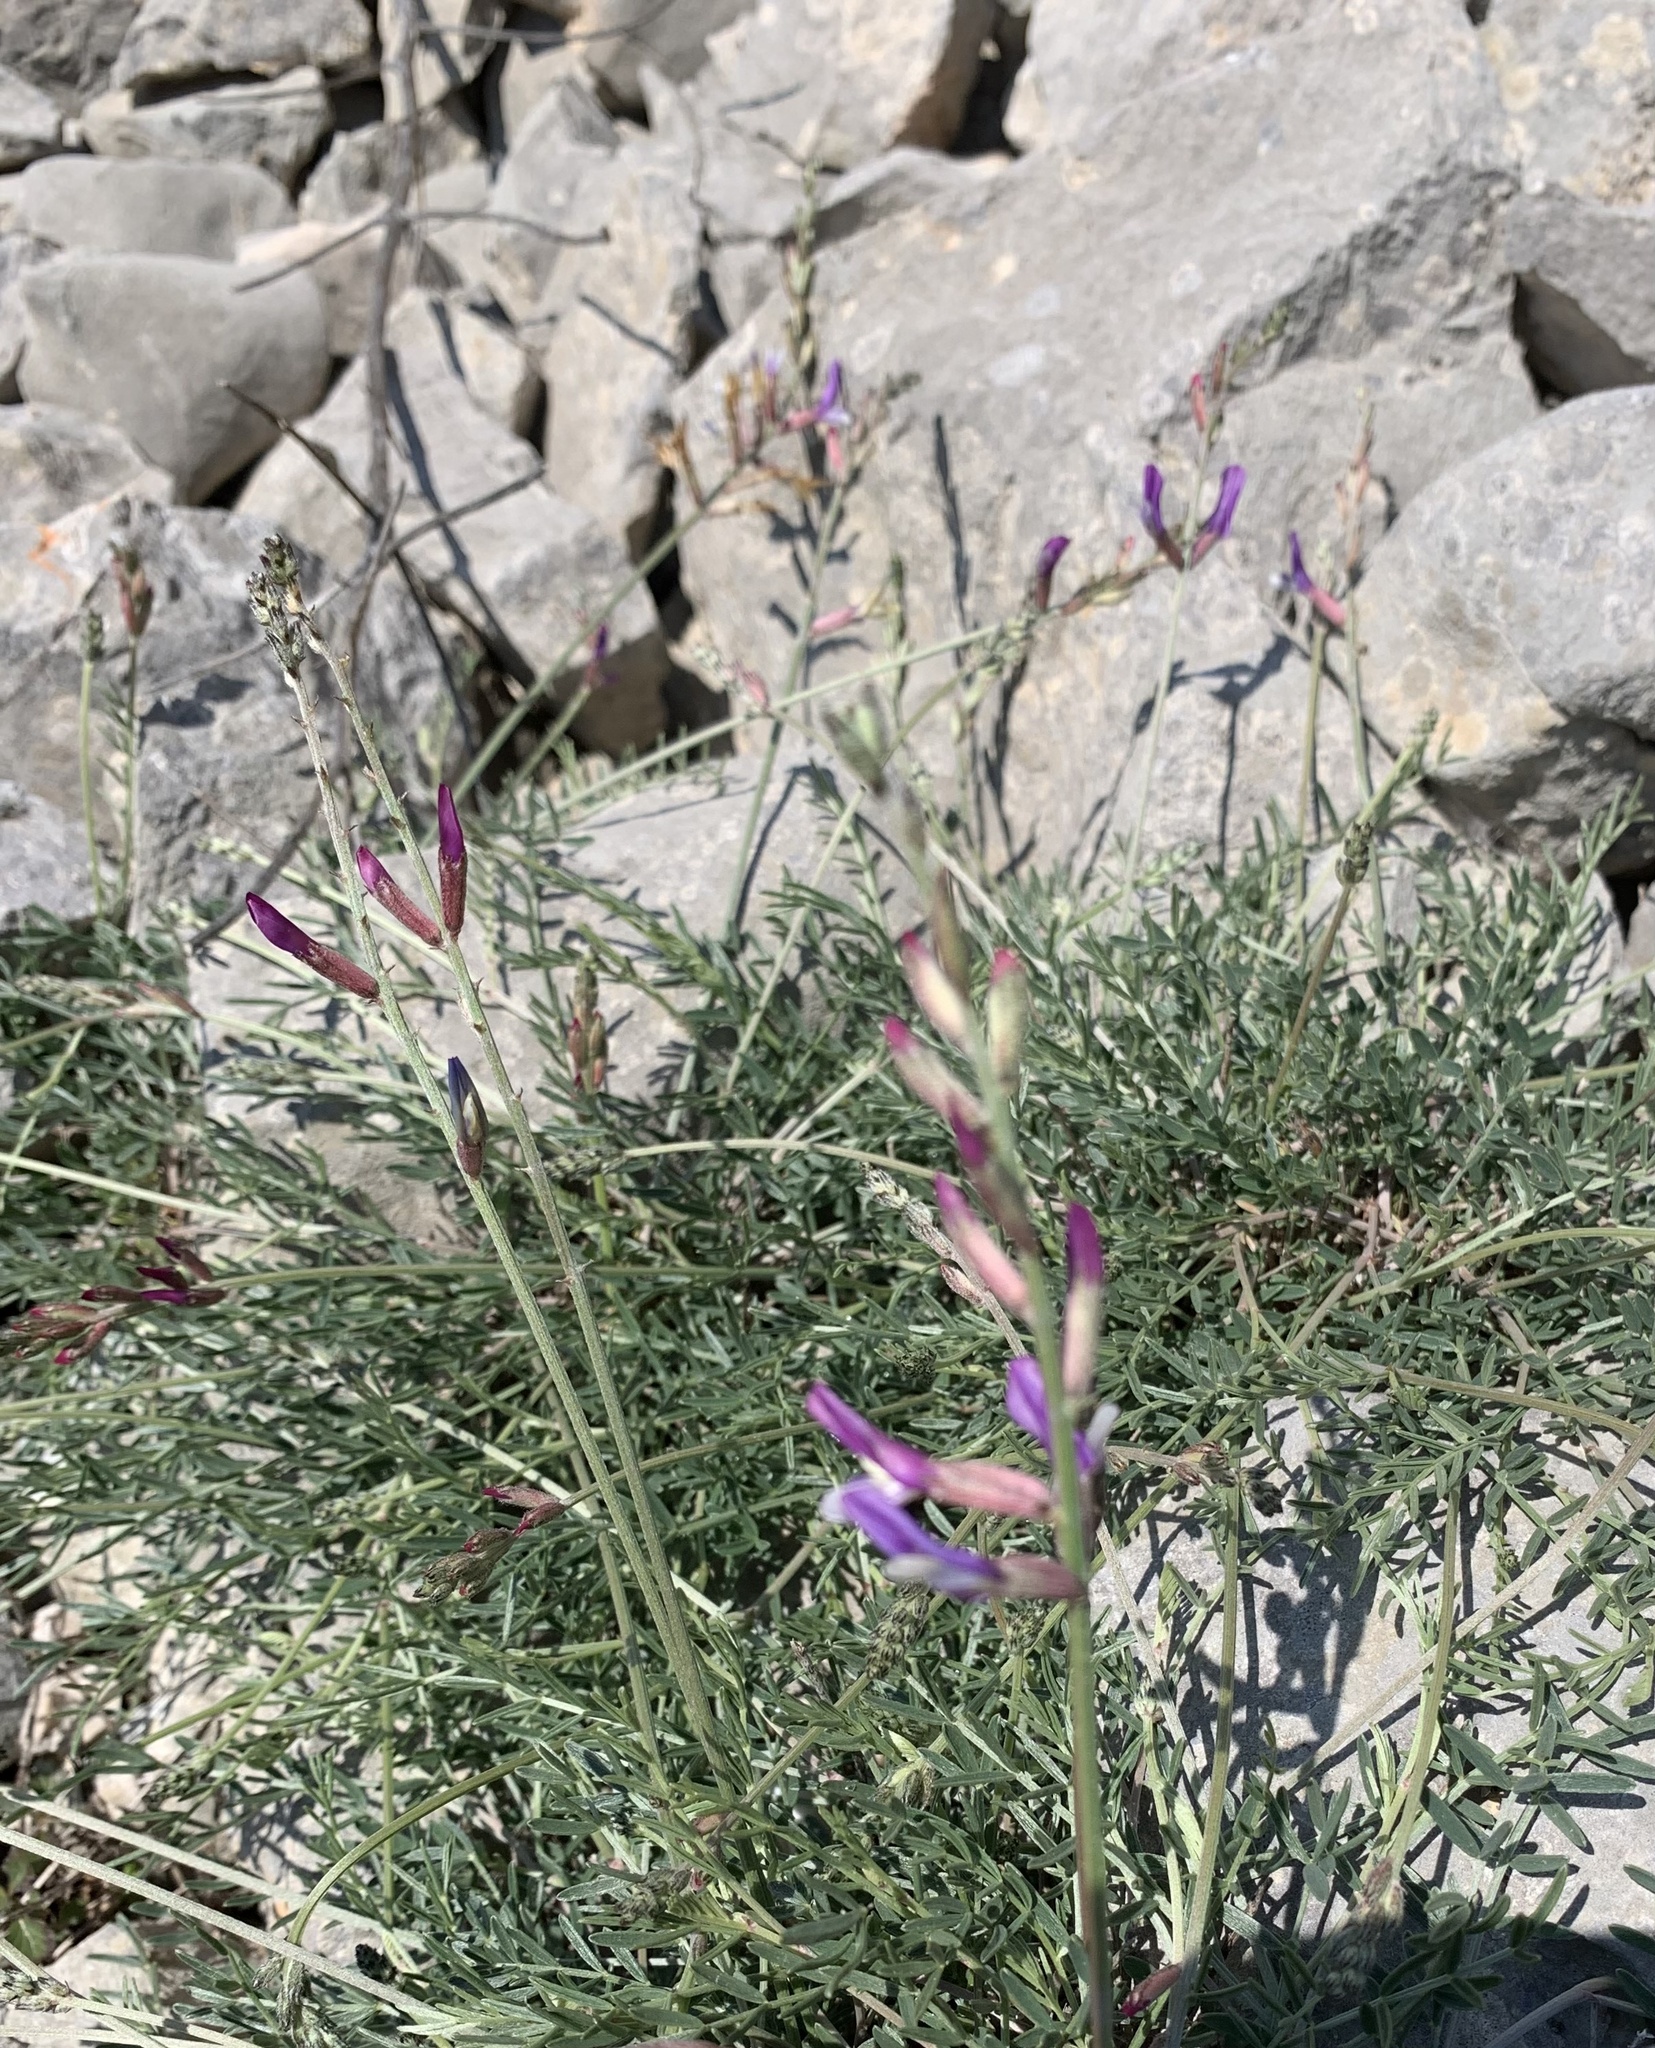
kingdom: Plantae
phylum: Tracheophyta
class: Magnoliopsida
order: Fabales
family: Fabaceae
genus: Astragalus
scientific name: Astragalus muelleri
